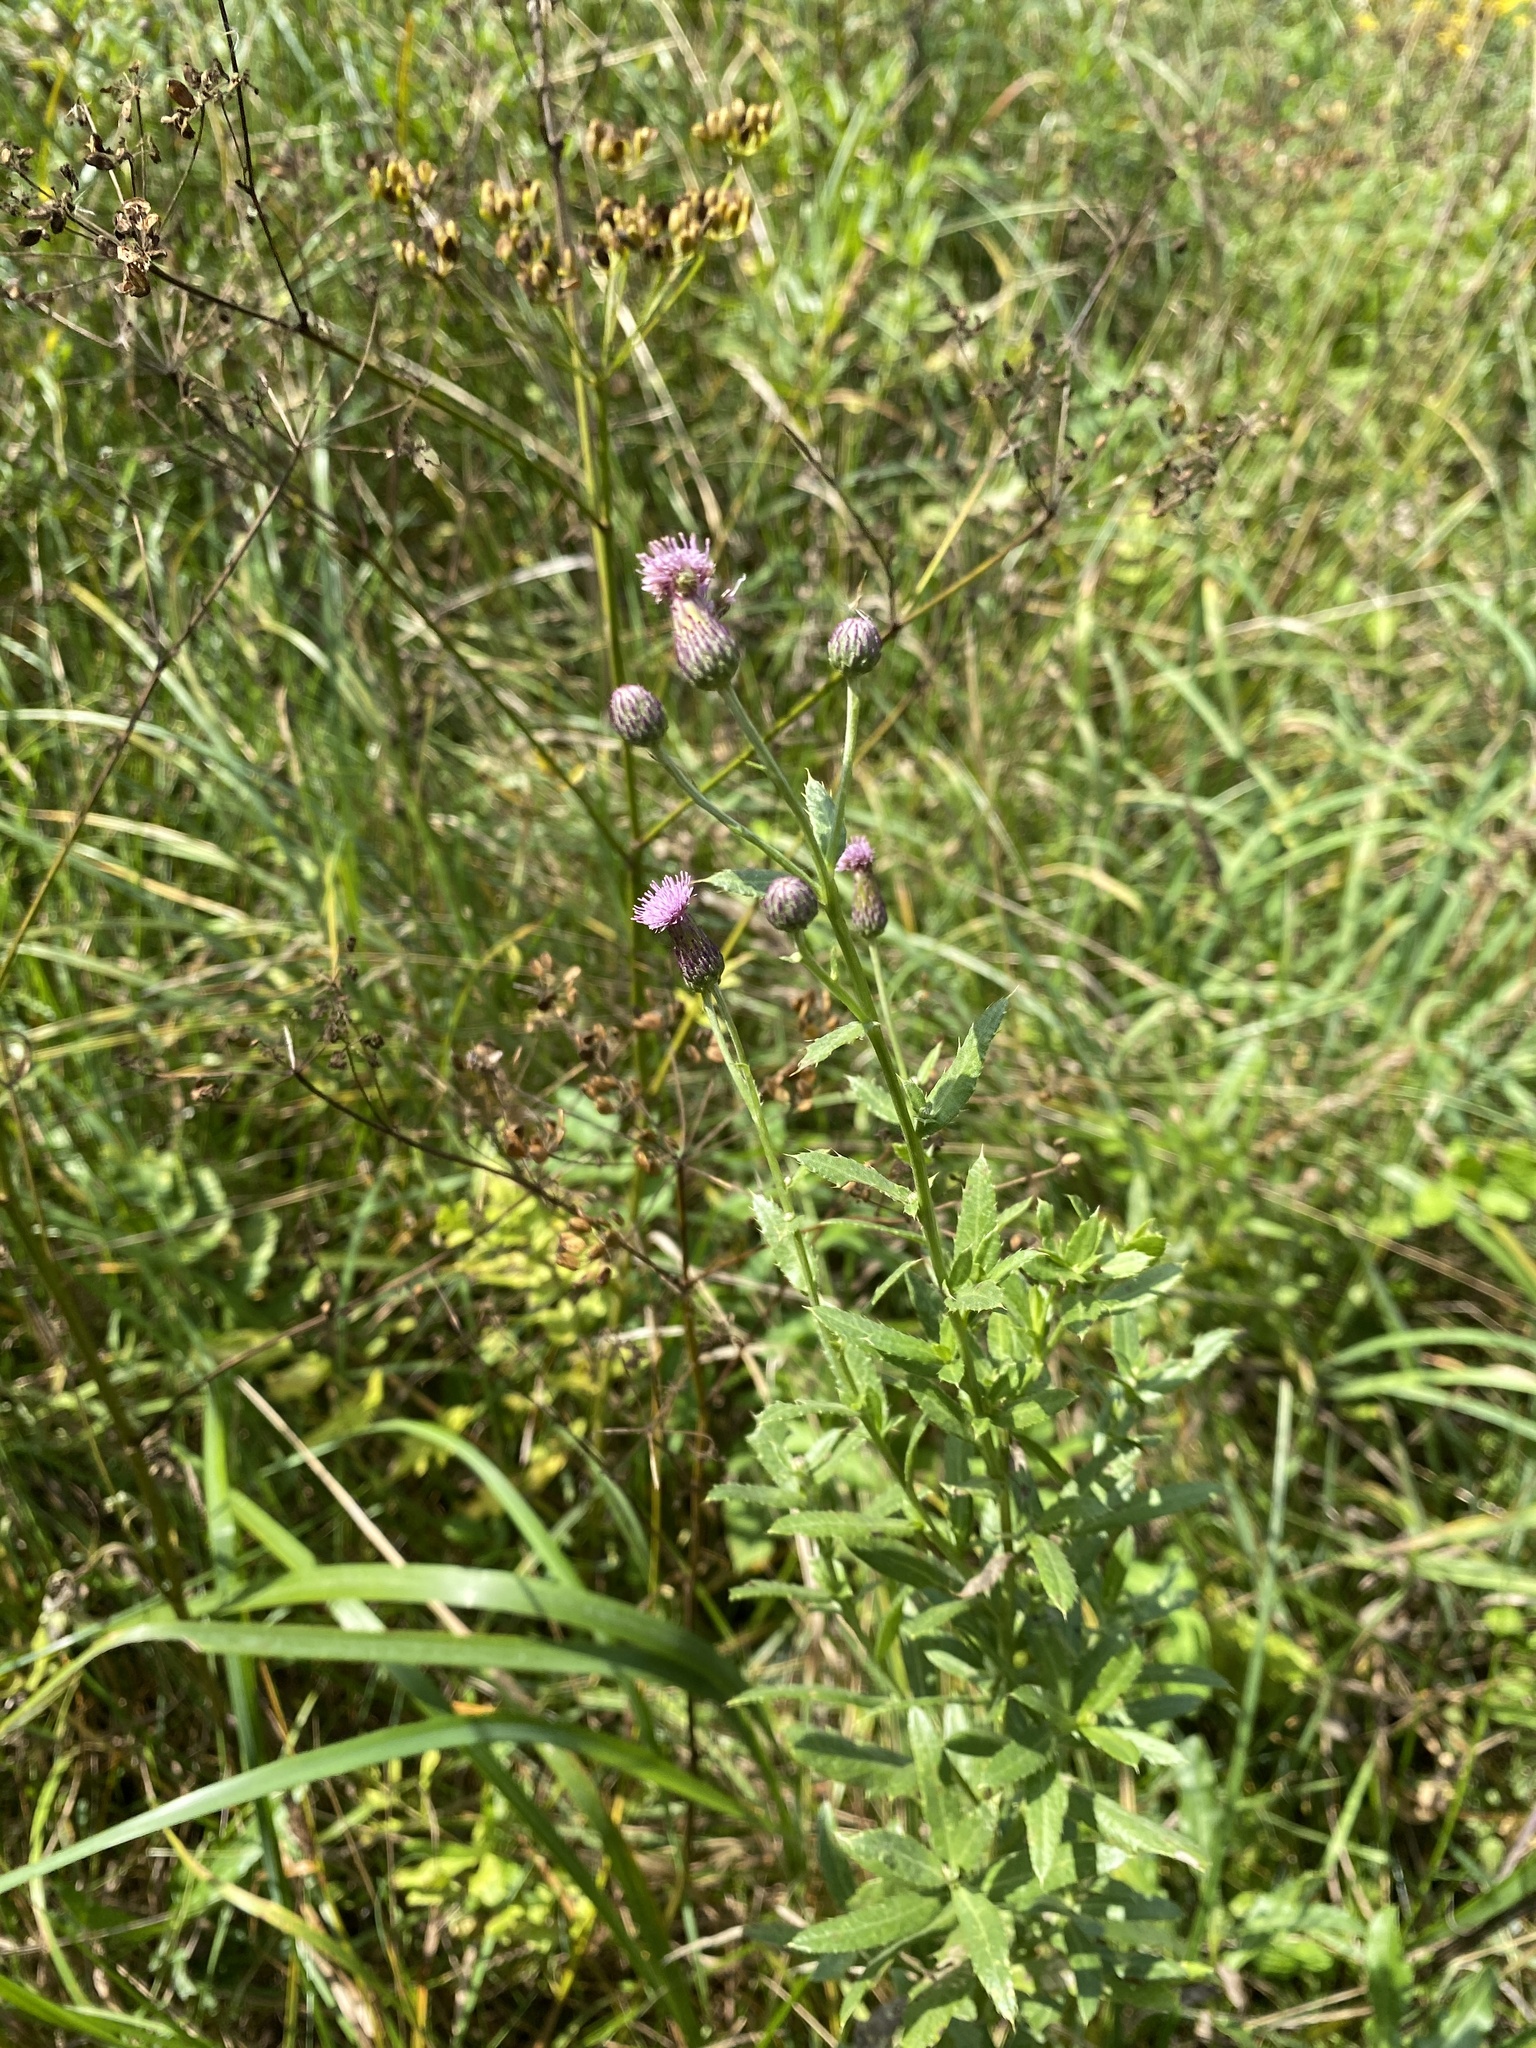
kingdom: Plantae
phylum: Tracheophyta
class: Magnoliopsida
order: Asterales
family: Asteraceae
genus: Cirsium
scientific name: Cirsium arvense
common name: Creeping thistle
